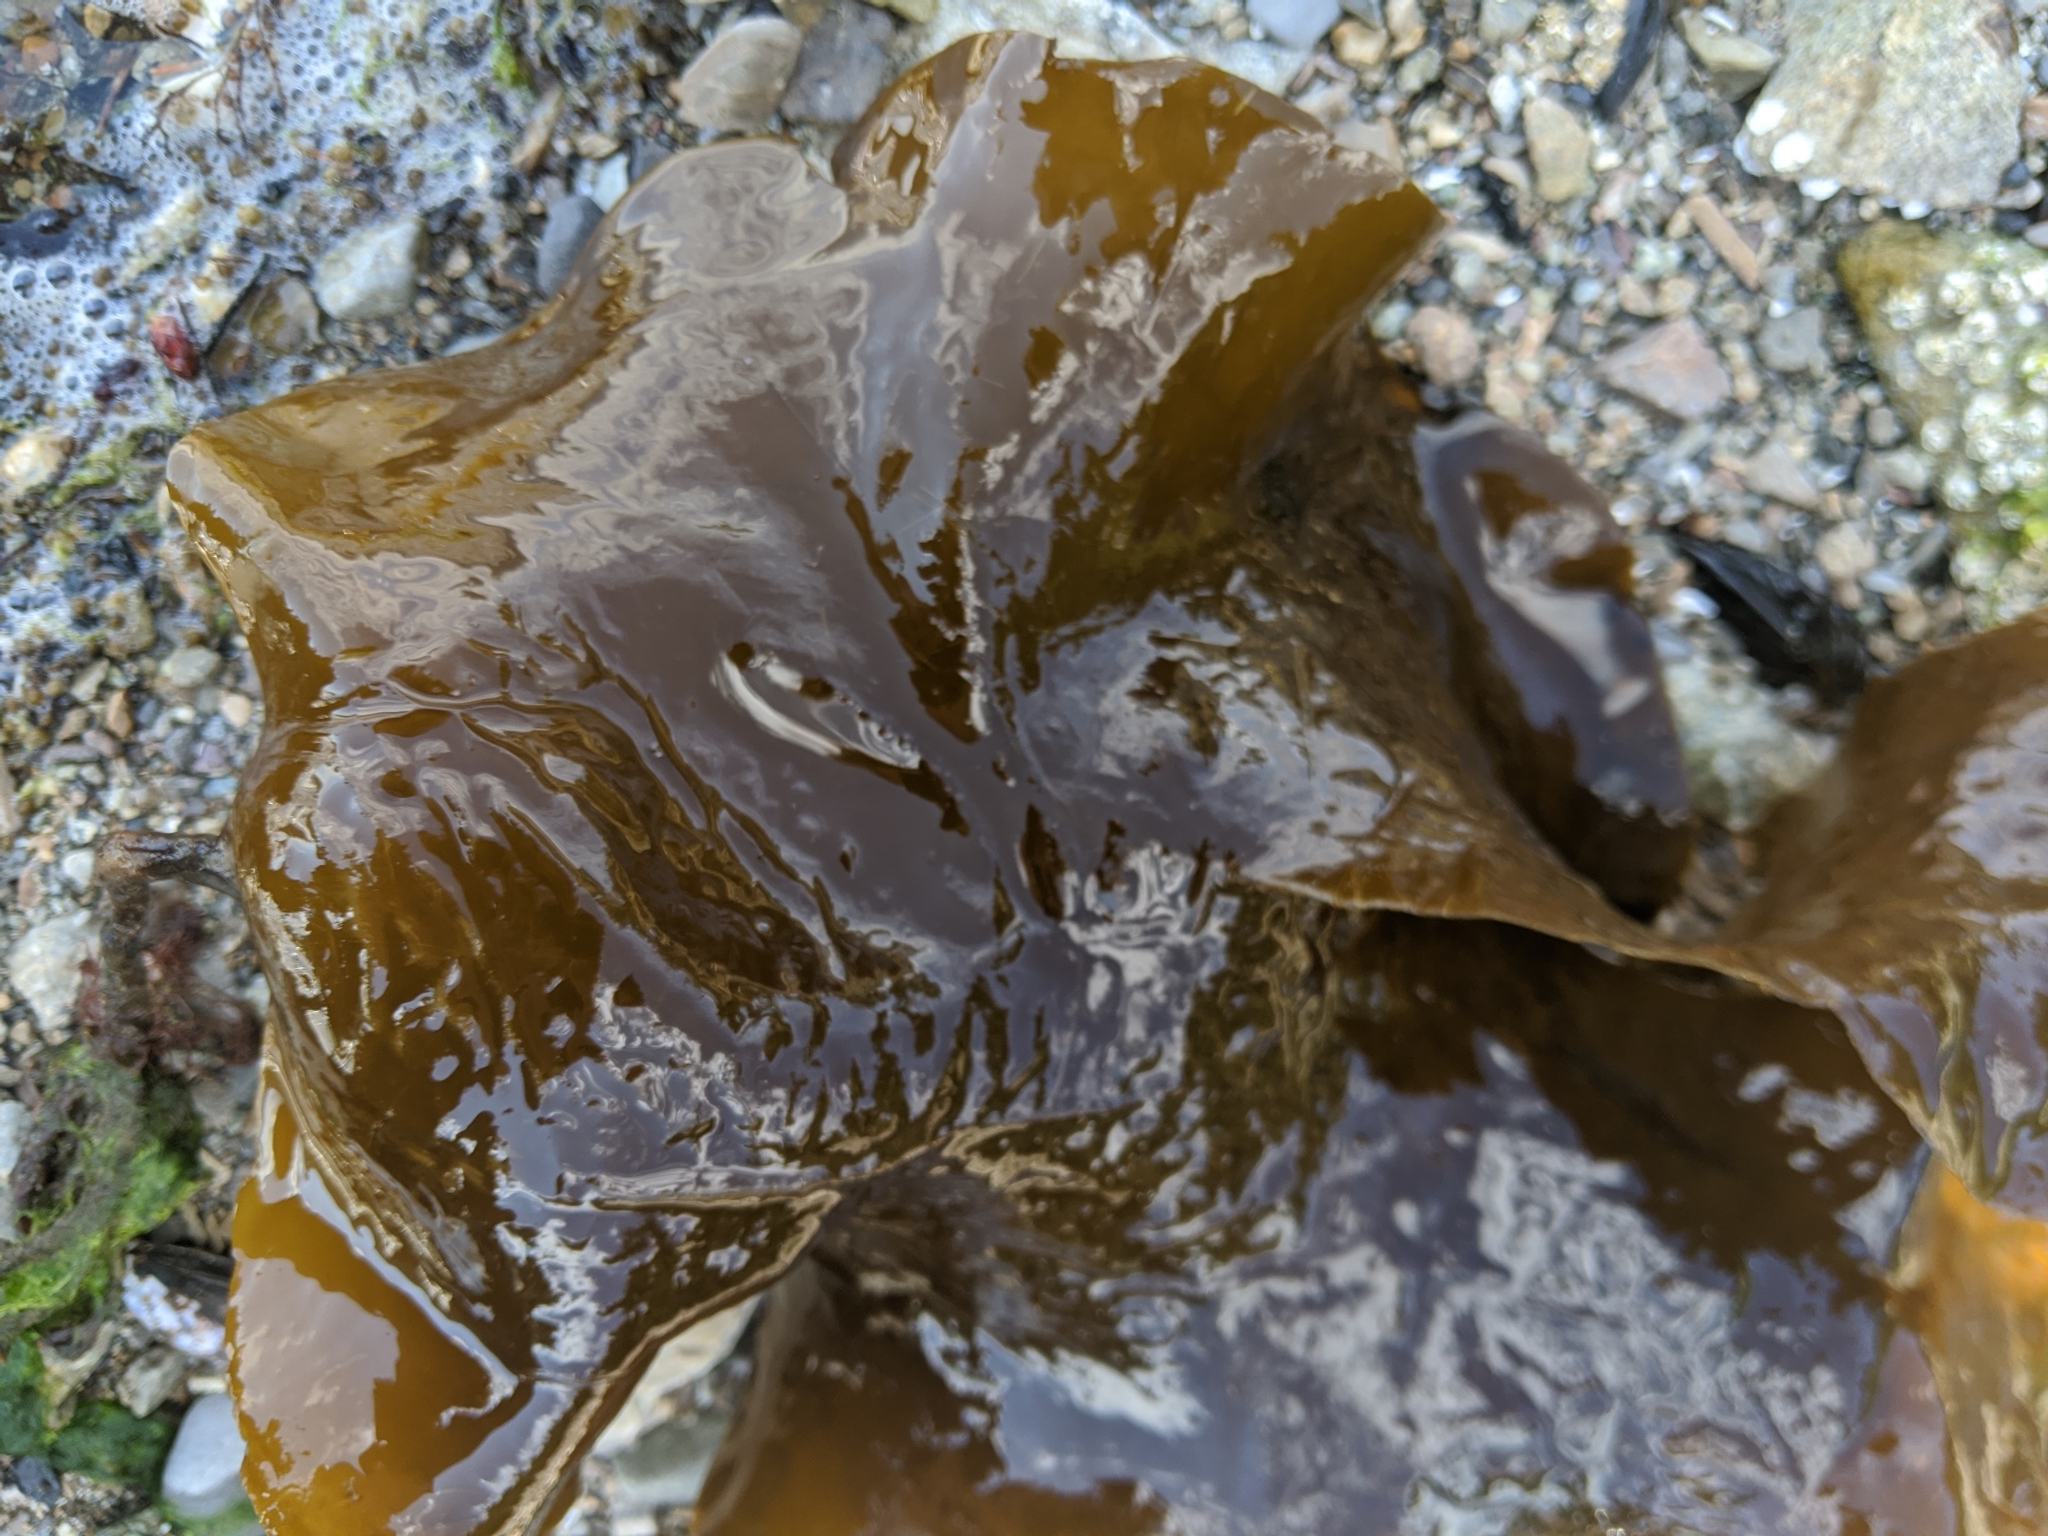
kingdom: Chromista
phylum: Ochrophyta
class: Phaeophyceae
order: Laminariales
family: Laminariaceae
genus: Saccharina
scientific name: Saccharina latissima
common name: Poor man's weather glass
